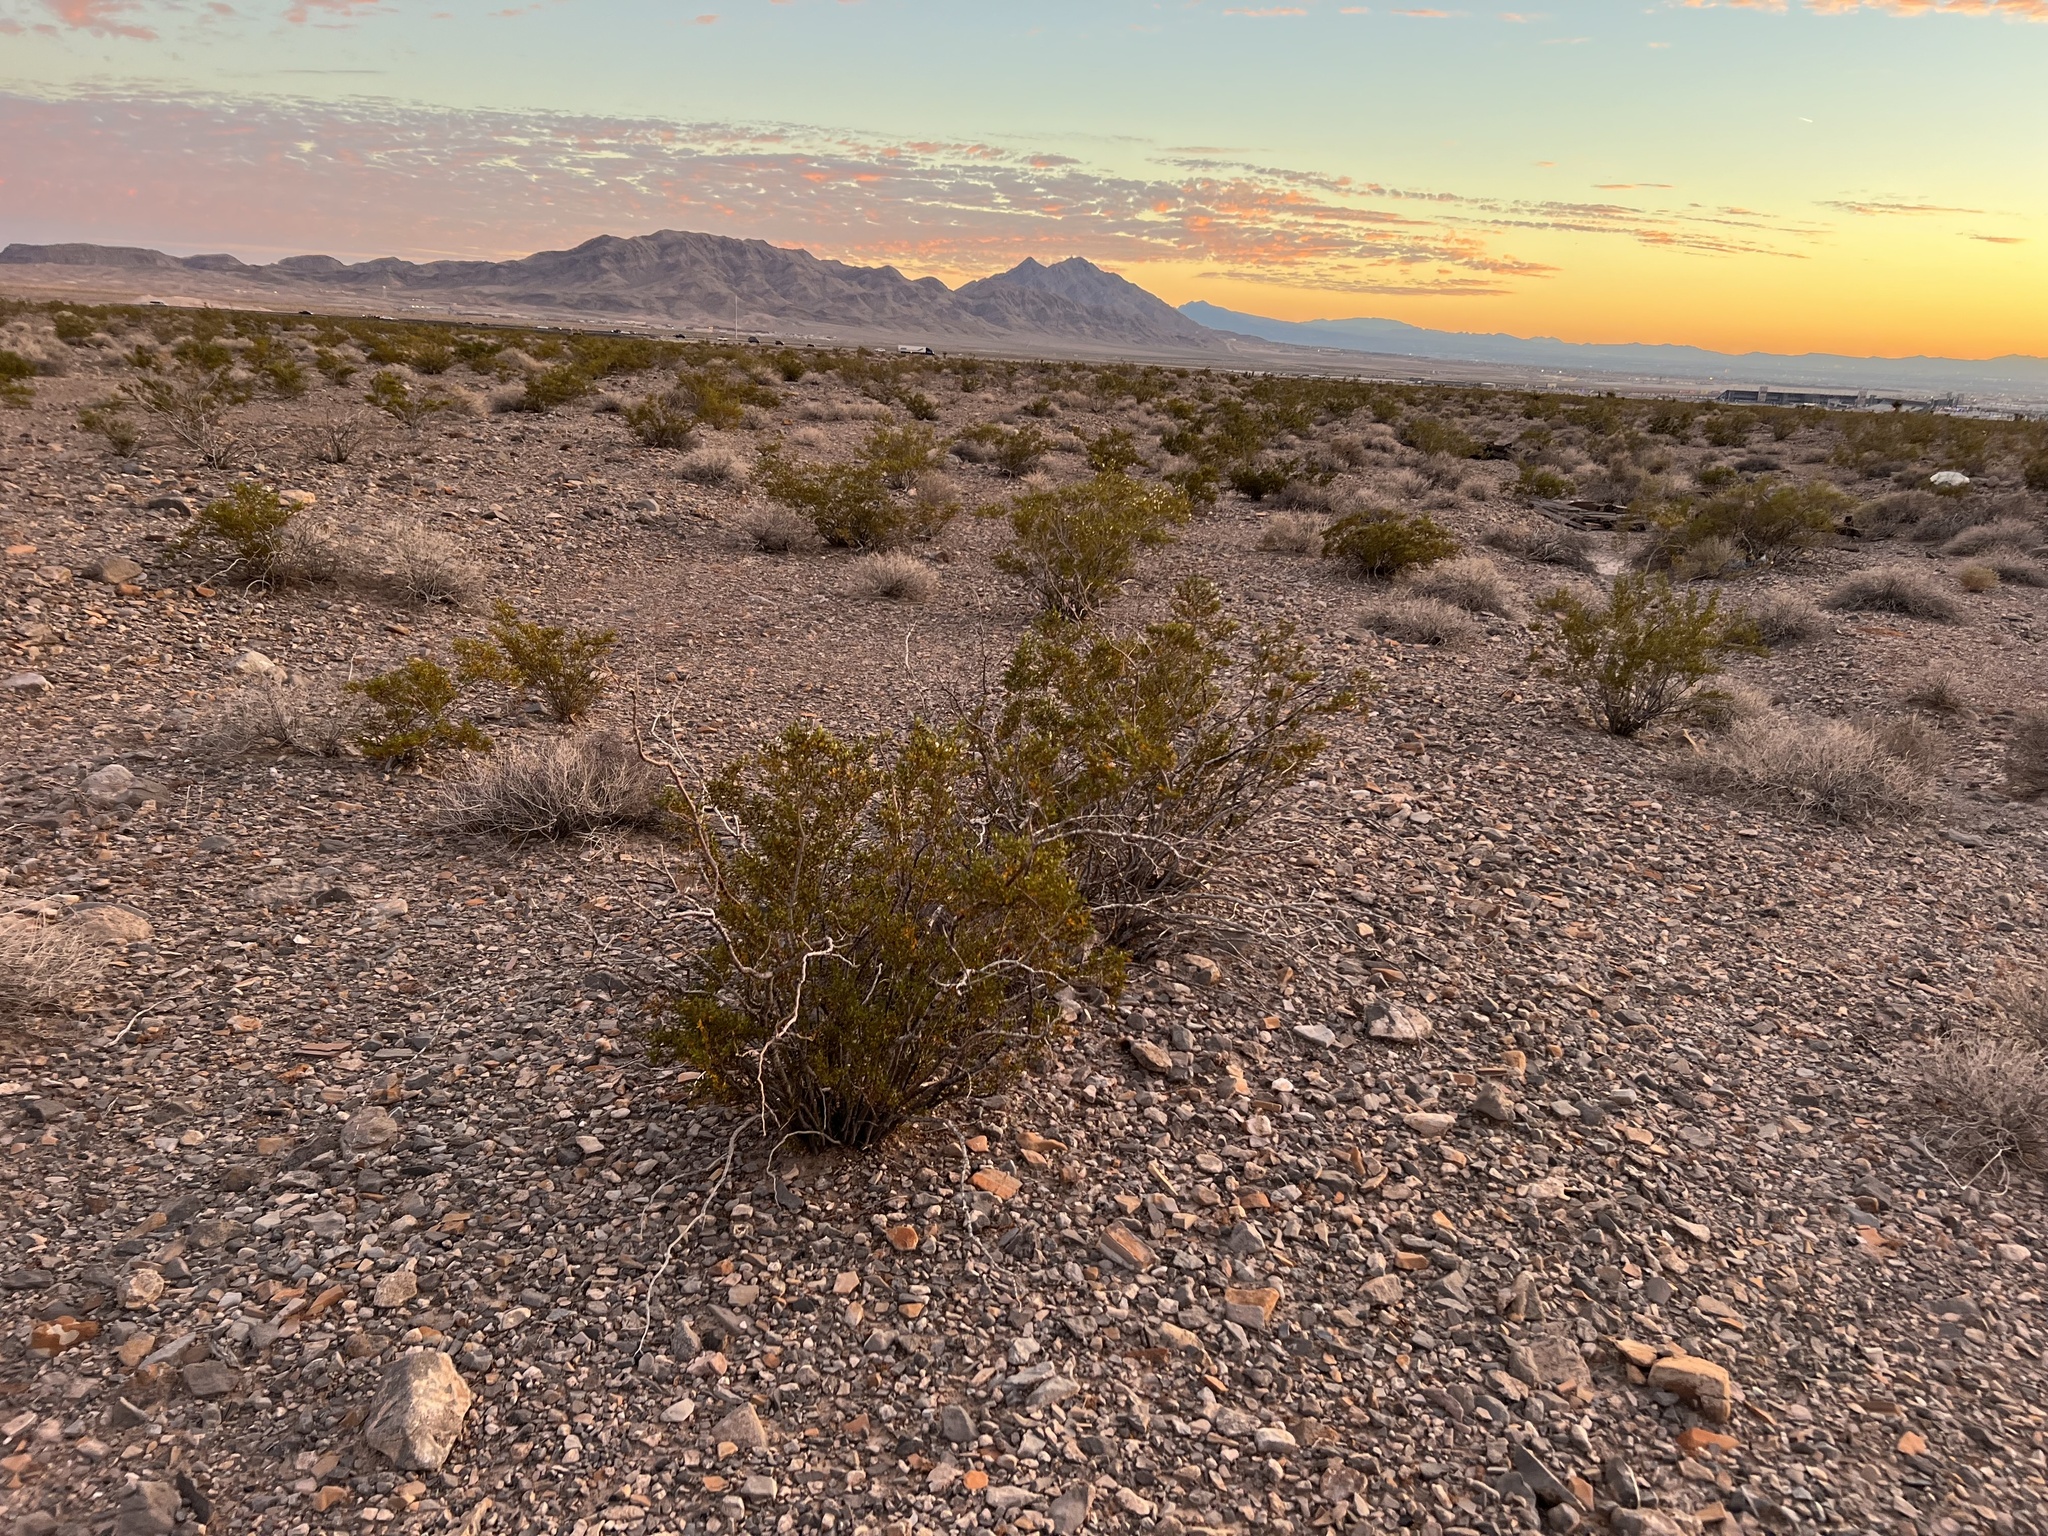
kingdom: Plantae
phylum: Tracheophyta
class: Magnoliopsida
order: Zygophyllales
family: Zygophyllaceae
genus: Larrea
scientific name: Larrea tridentata
